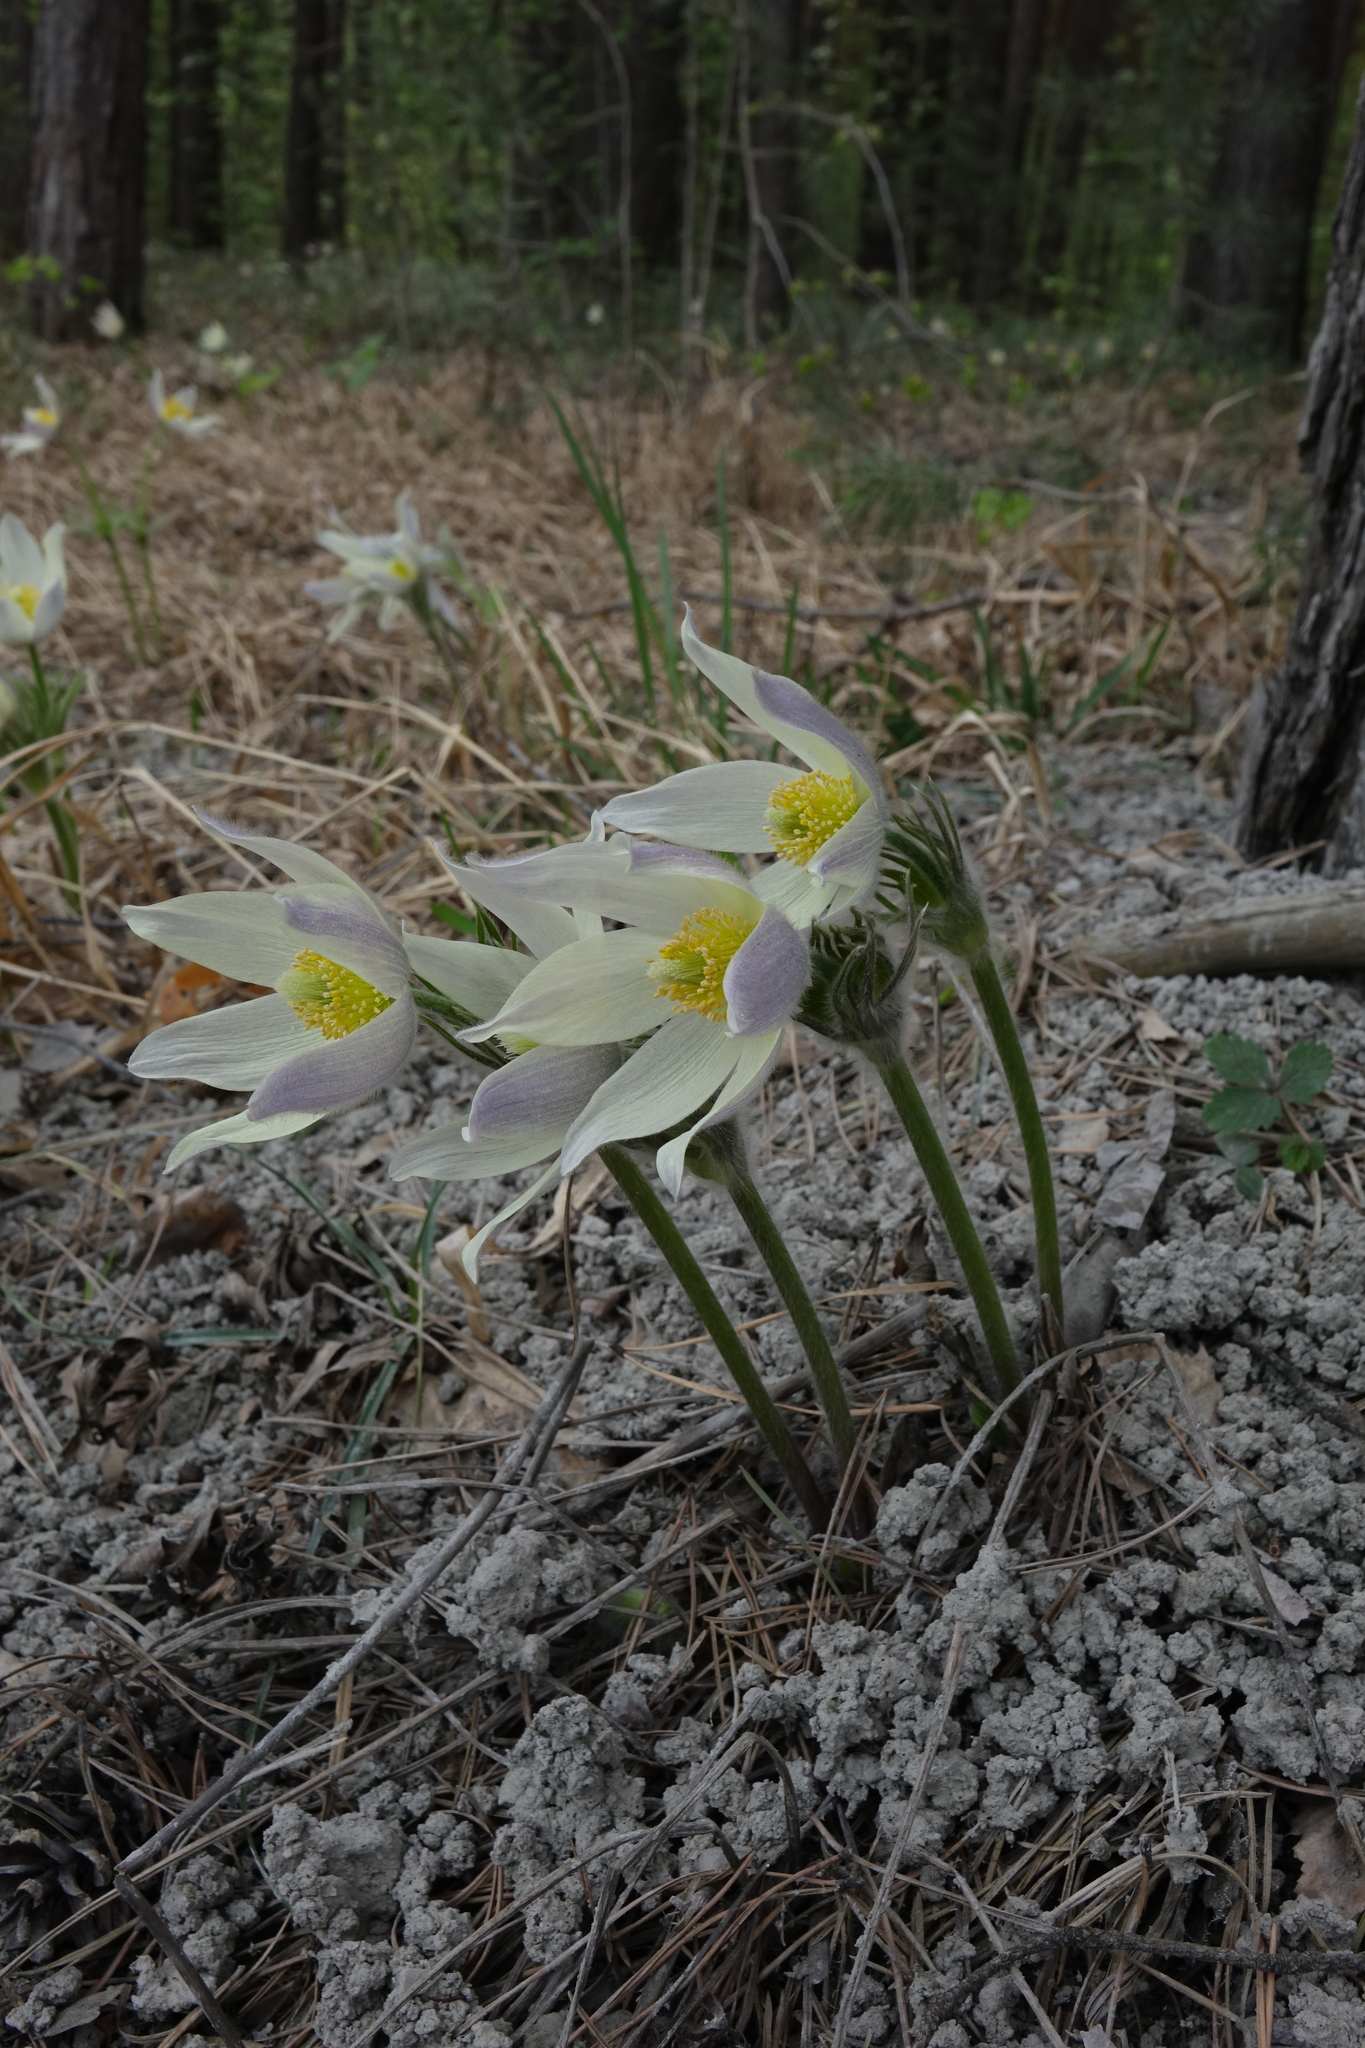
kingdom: Plantae
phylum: Tracheophyta
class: Magnoliopsida
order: Ranunculales
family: Ranunculaceae
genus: Pulsatilla
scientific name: Pulsatilla patens
